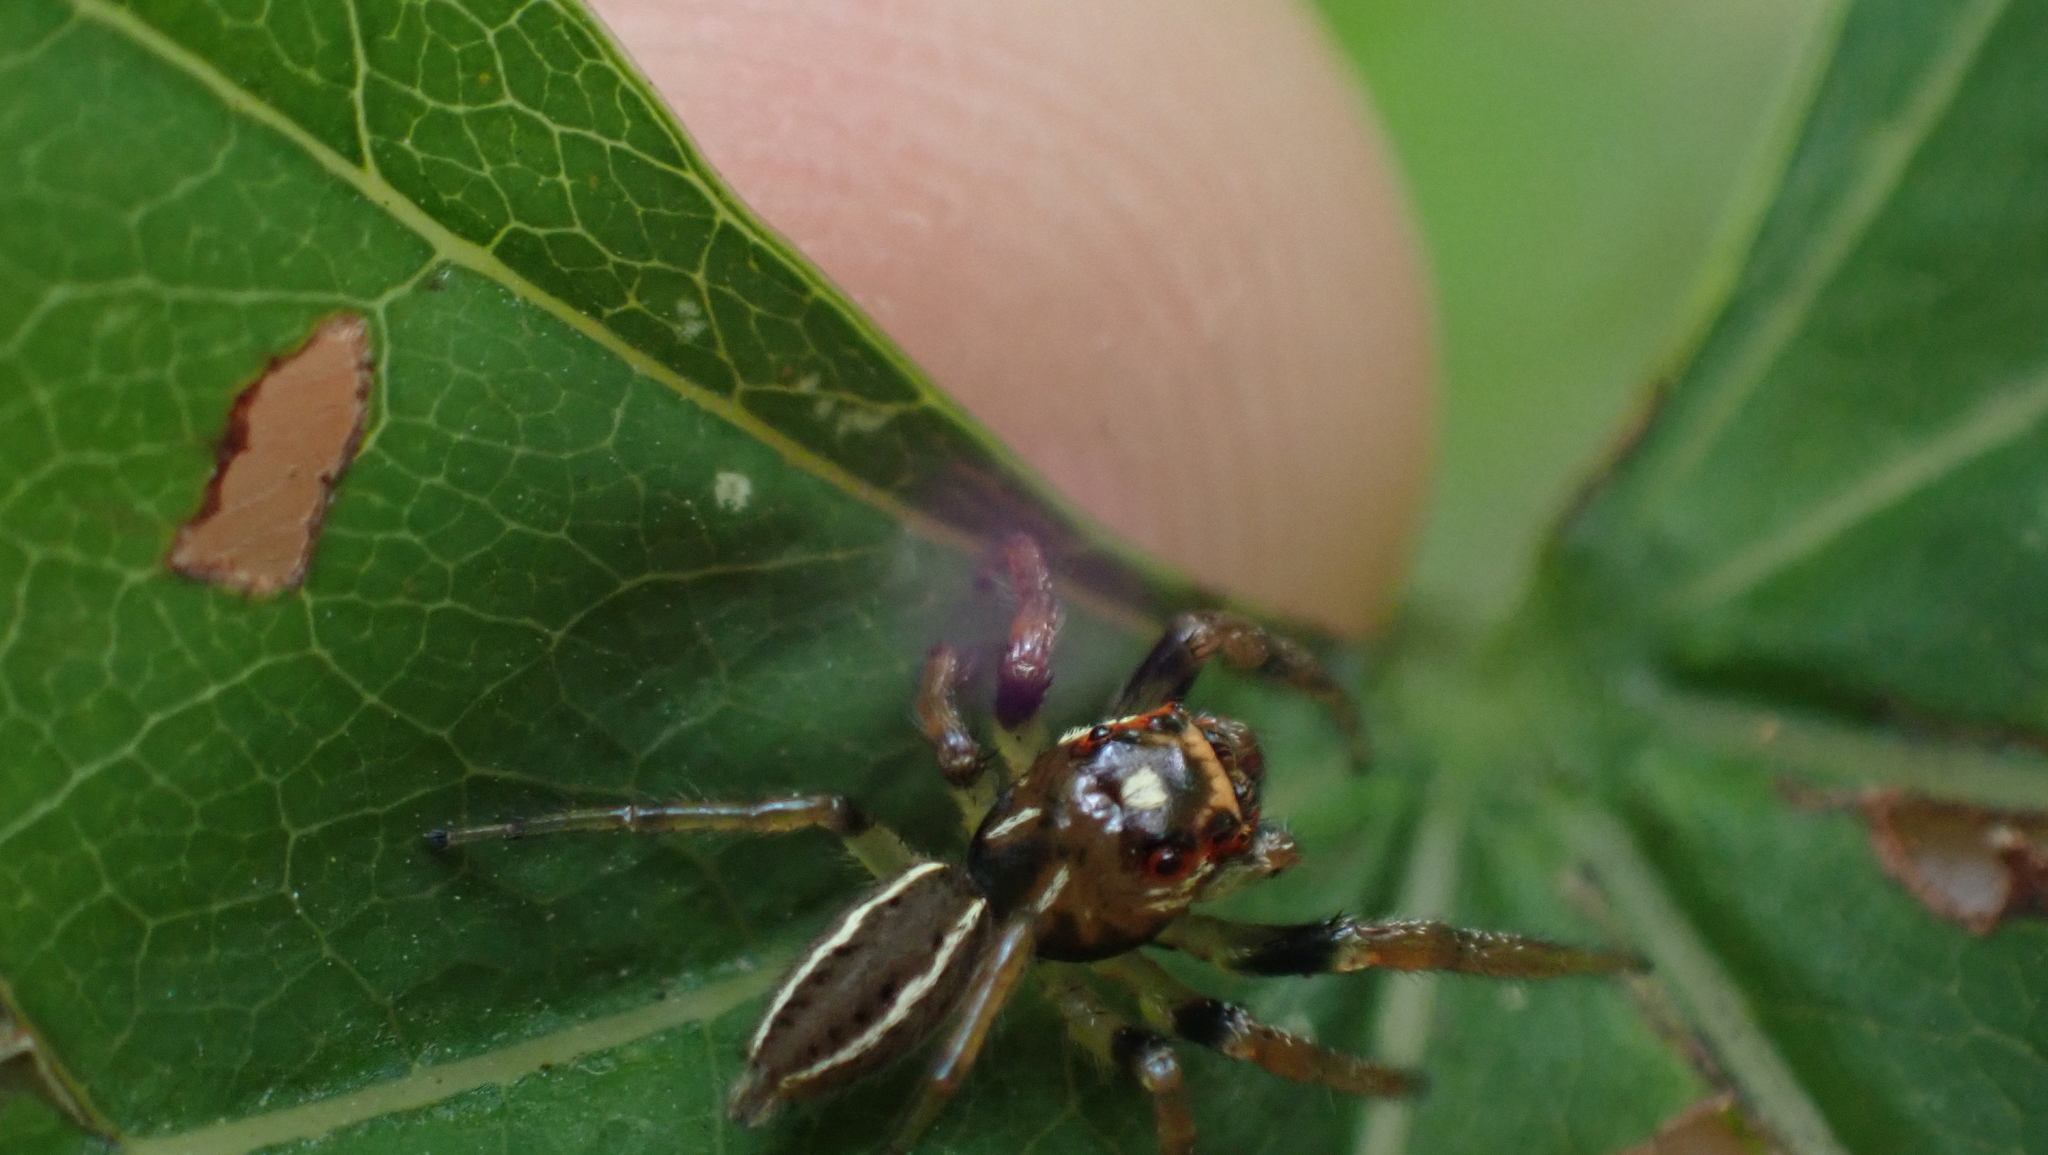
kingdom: Animalia
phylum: Arthropoda
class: Arachnida
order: Araneae
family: Salticidae
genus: Colonus
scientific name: Colonus sylvanus
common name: Jumping spiders
